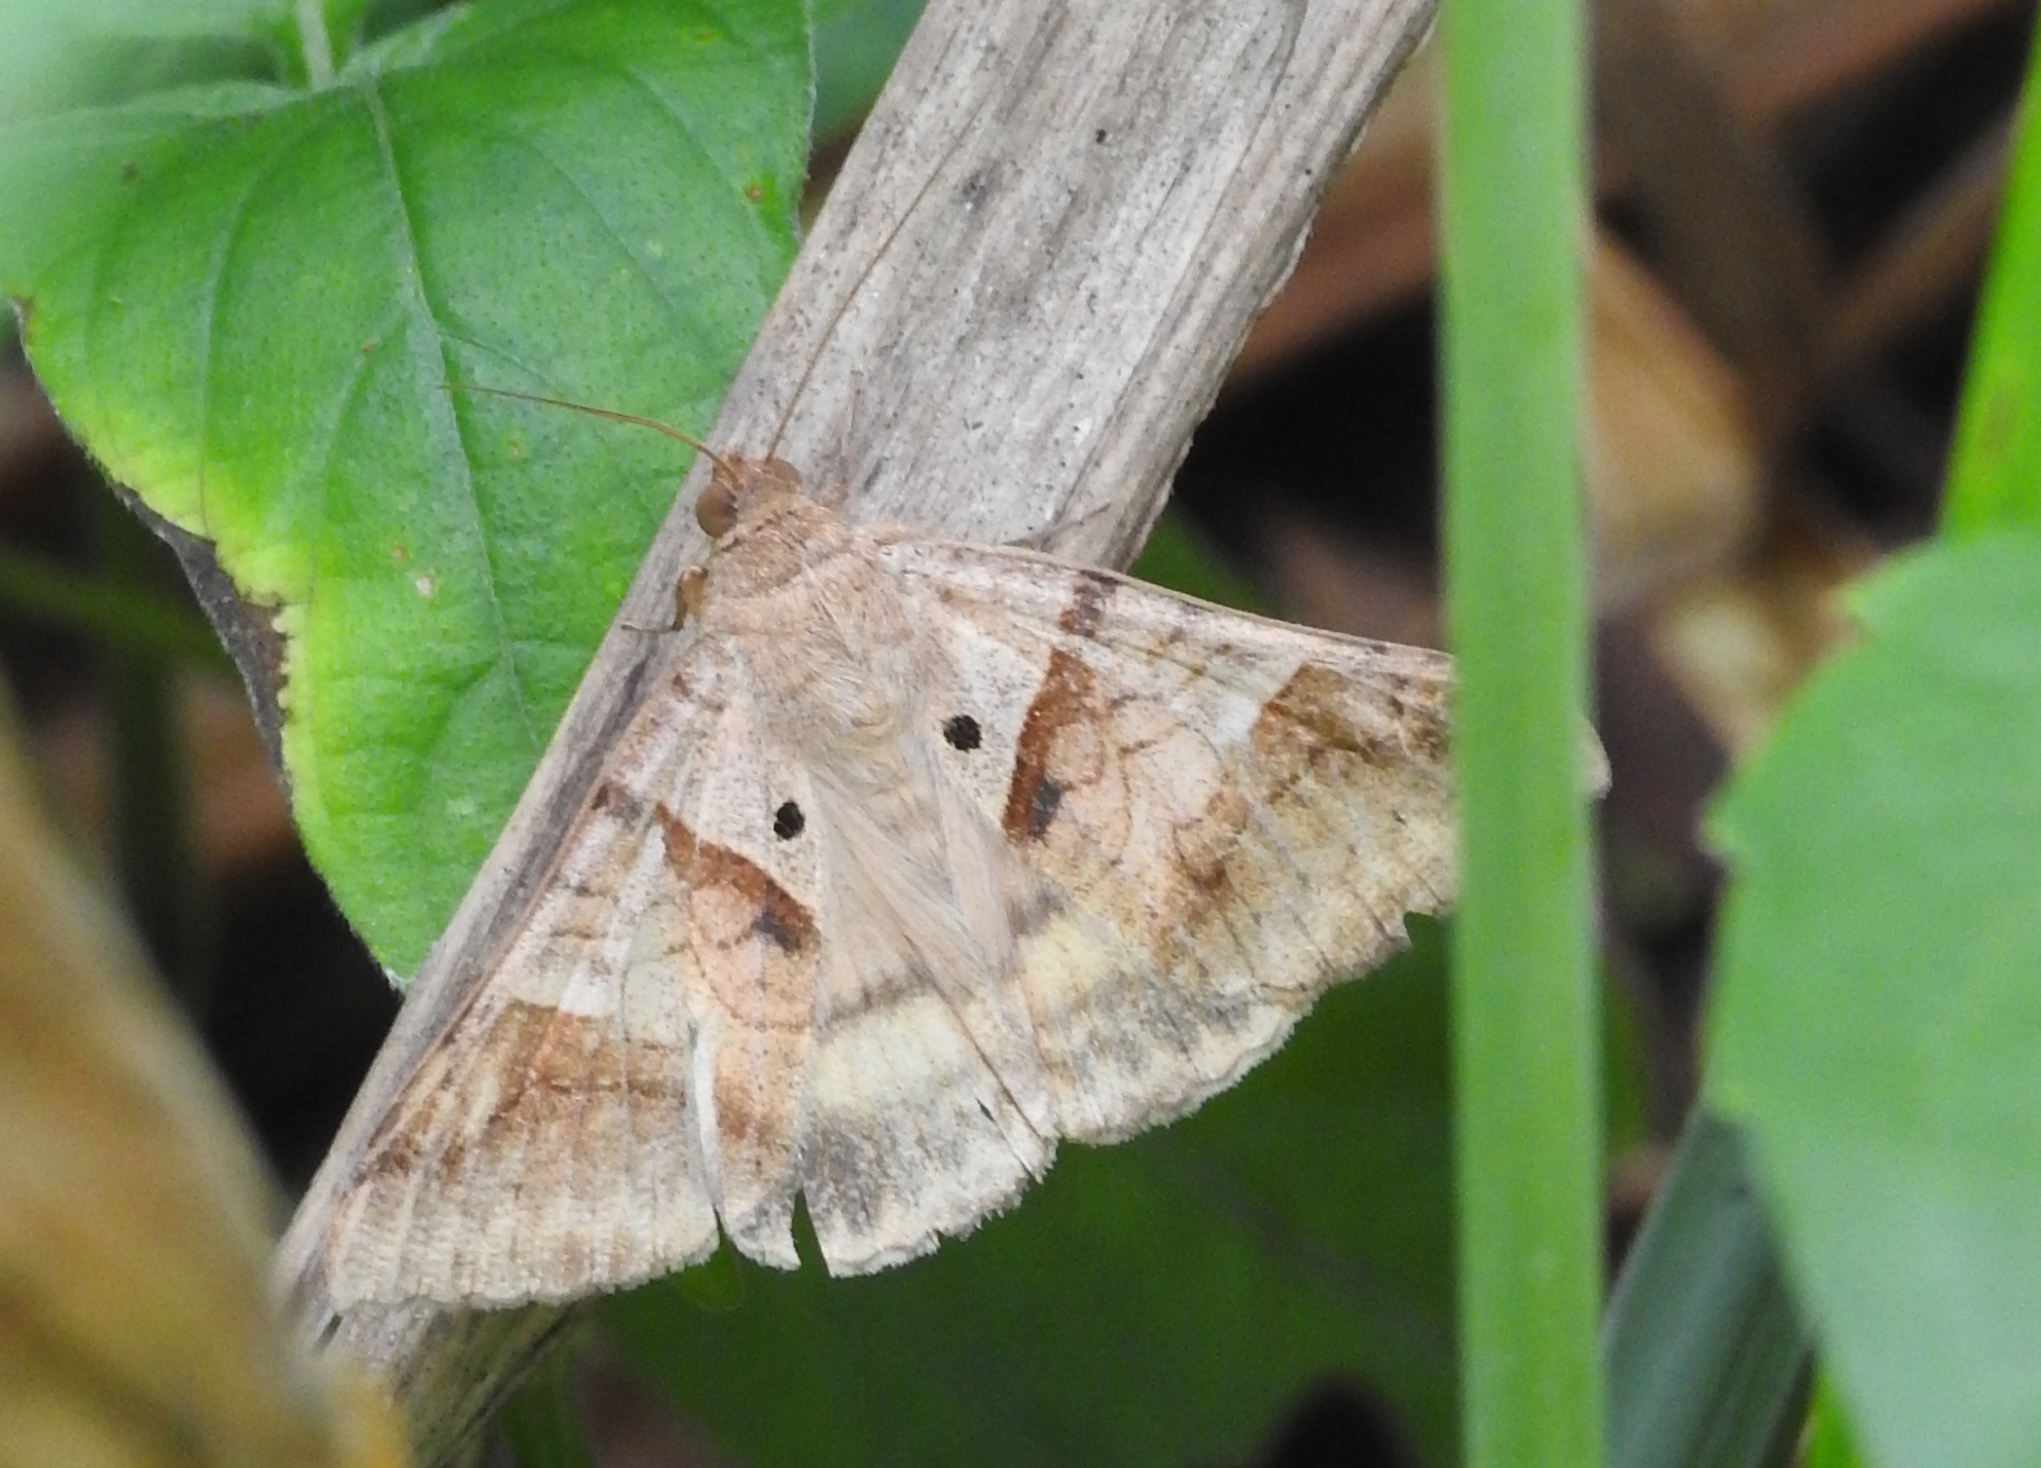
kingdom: Animalia
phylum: Arthropoda
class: Insecta
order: Lepidoptera
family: Erebidae
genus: Mocis
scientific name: Mocis undata
